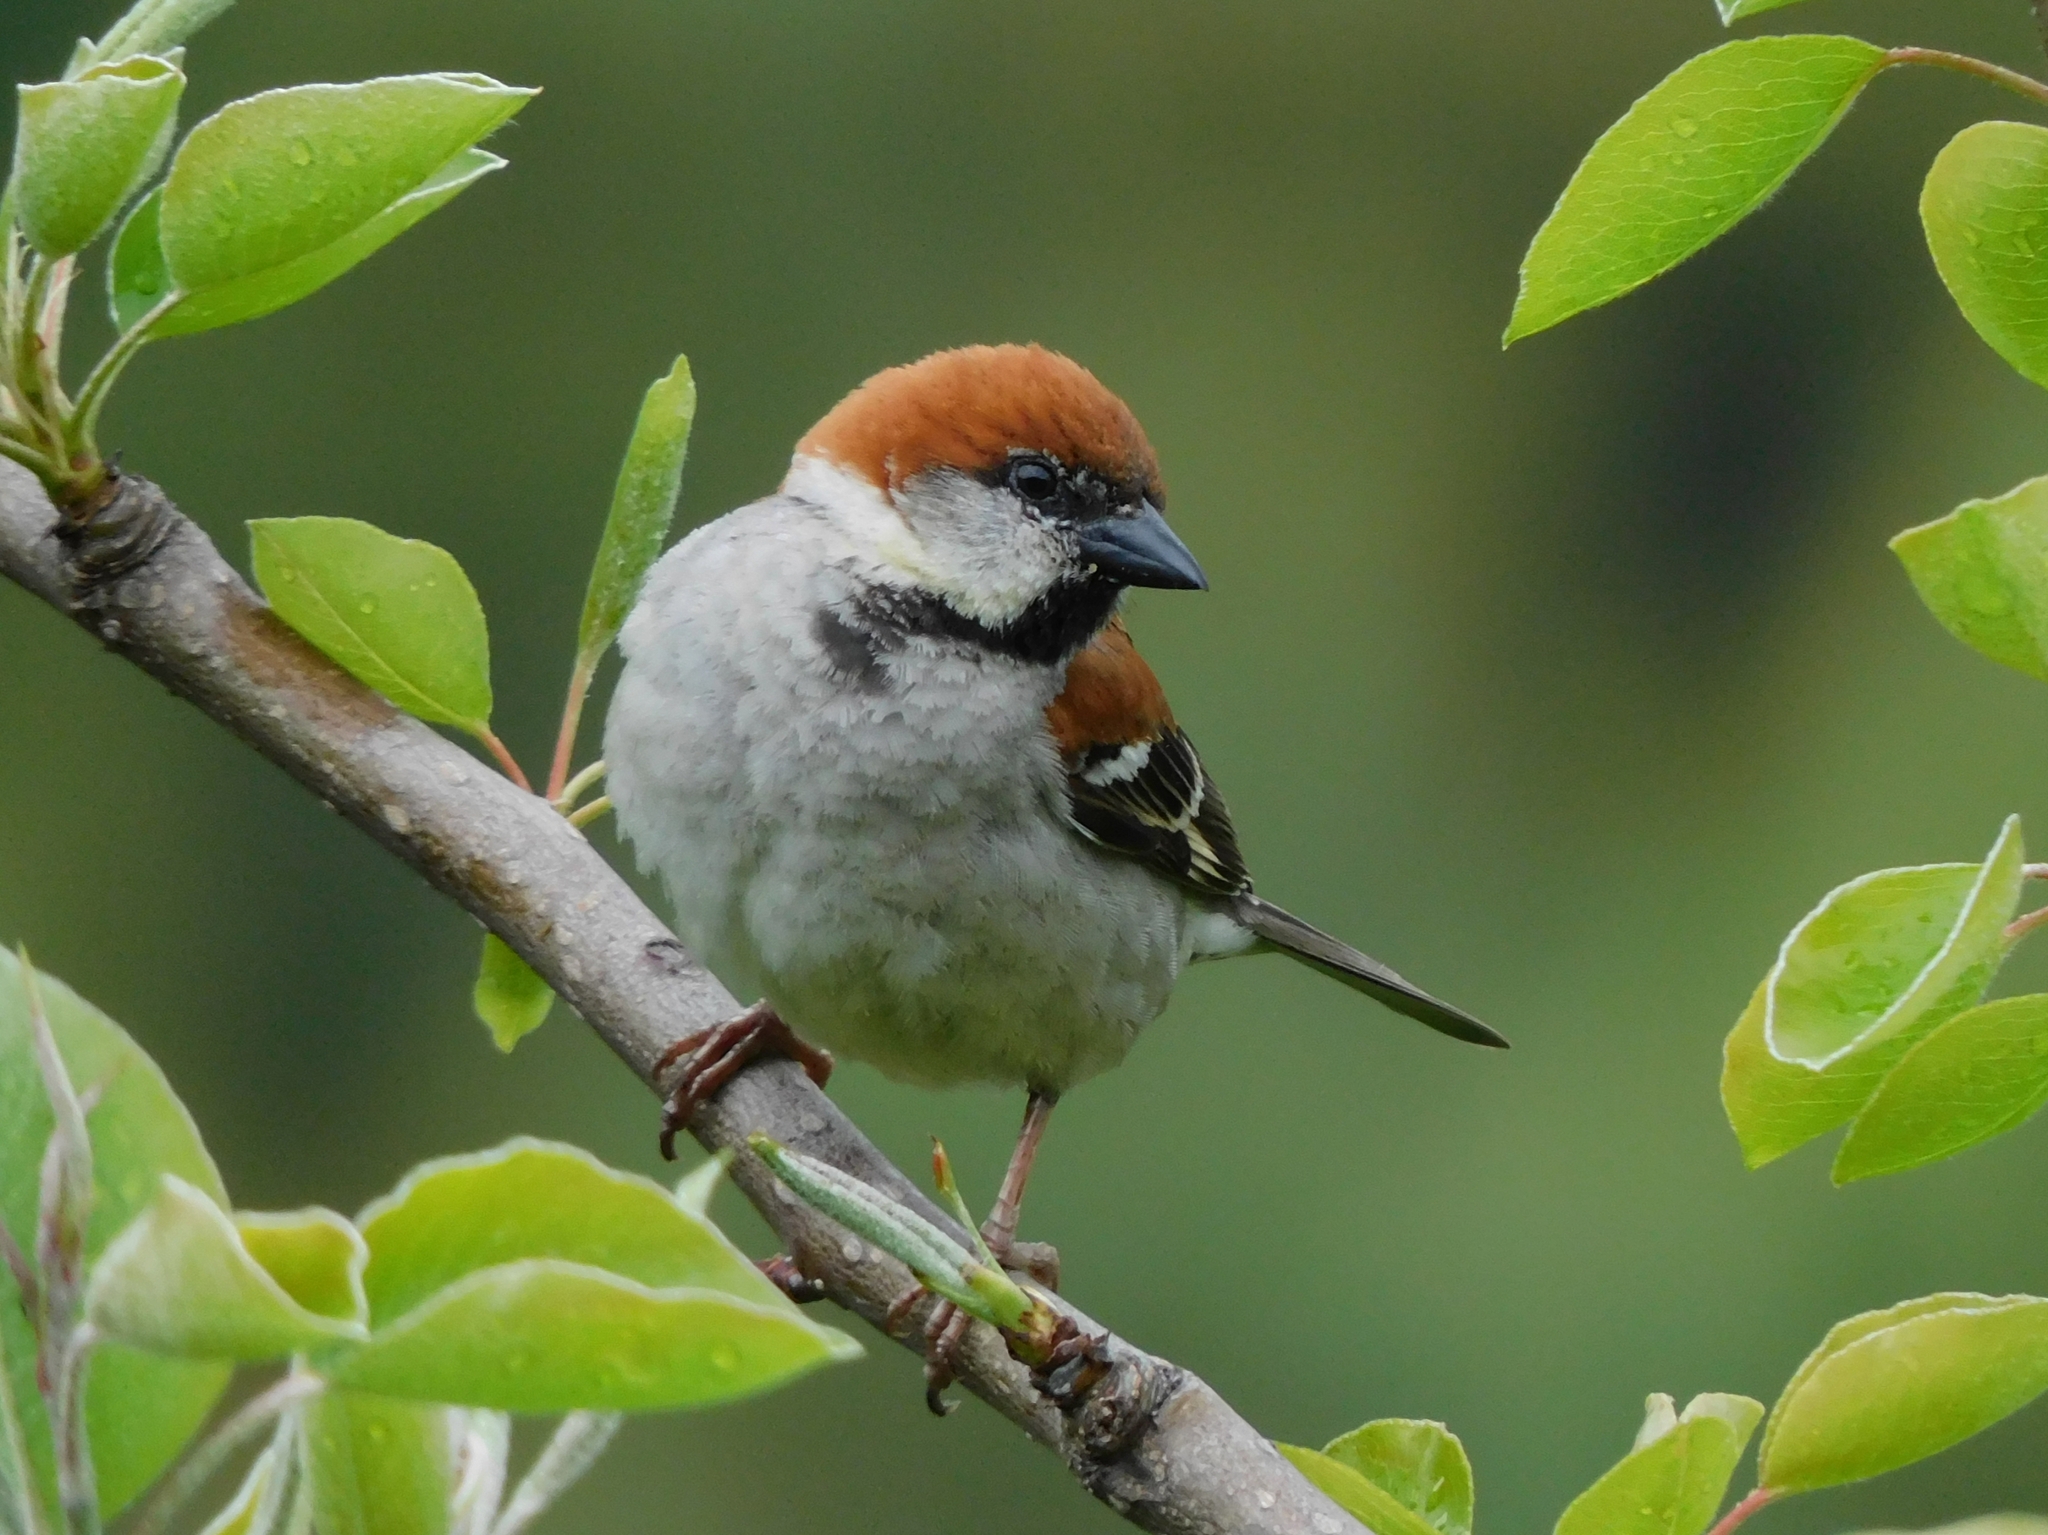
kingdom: Animalia
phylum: Chordata
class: Aves
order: Passeriformes
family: Passeridae
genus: Passer
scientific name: Passer cinnamomeus
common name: Russet sparrow
